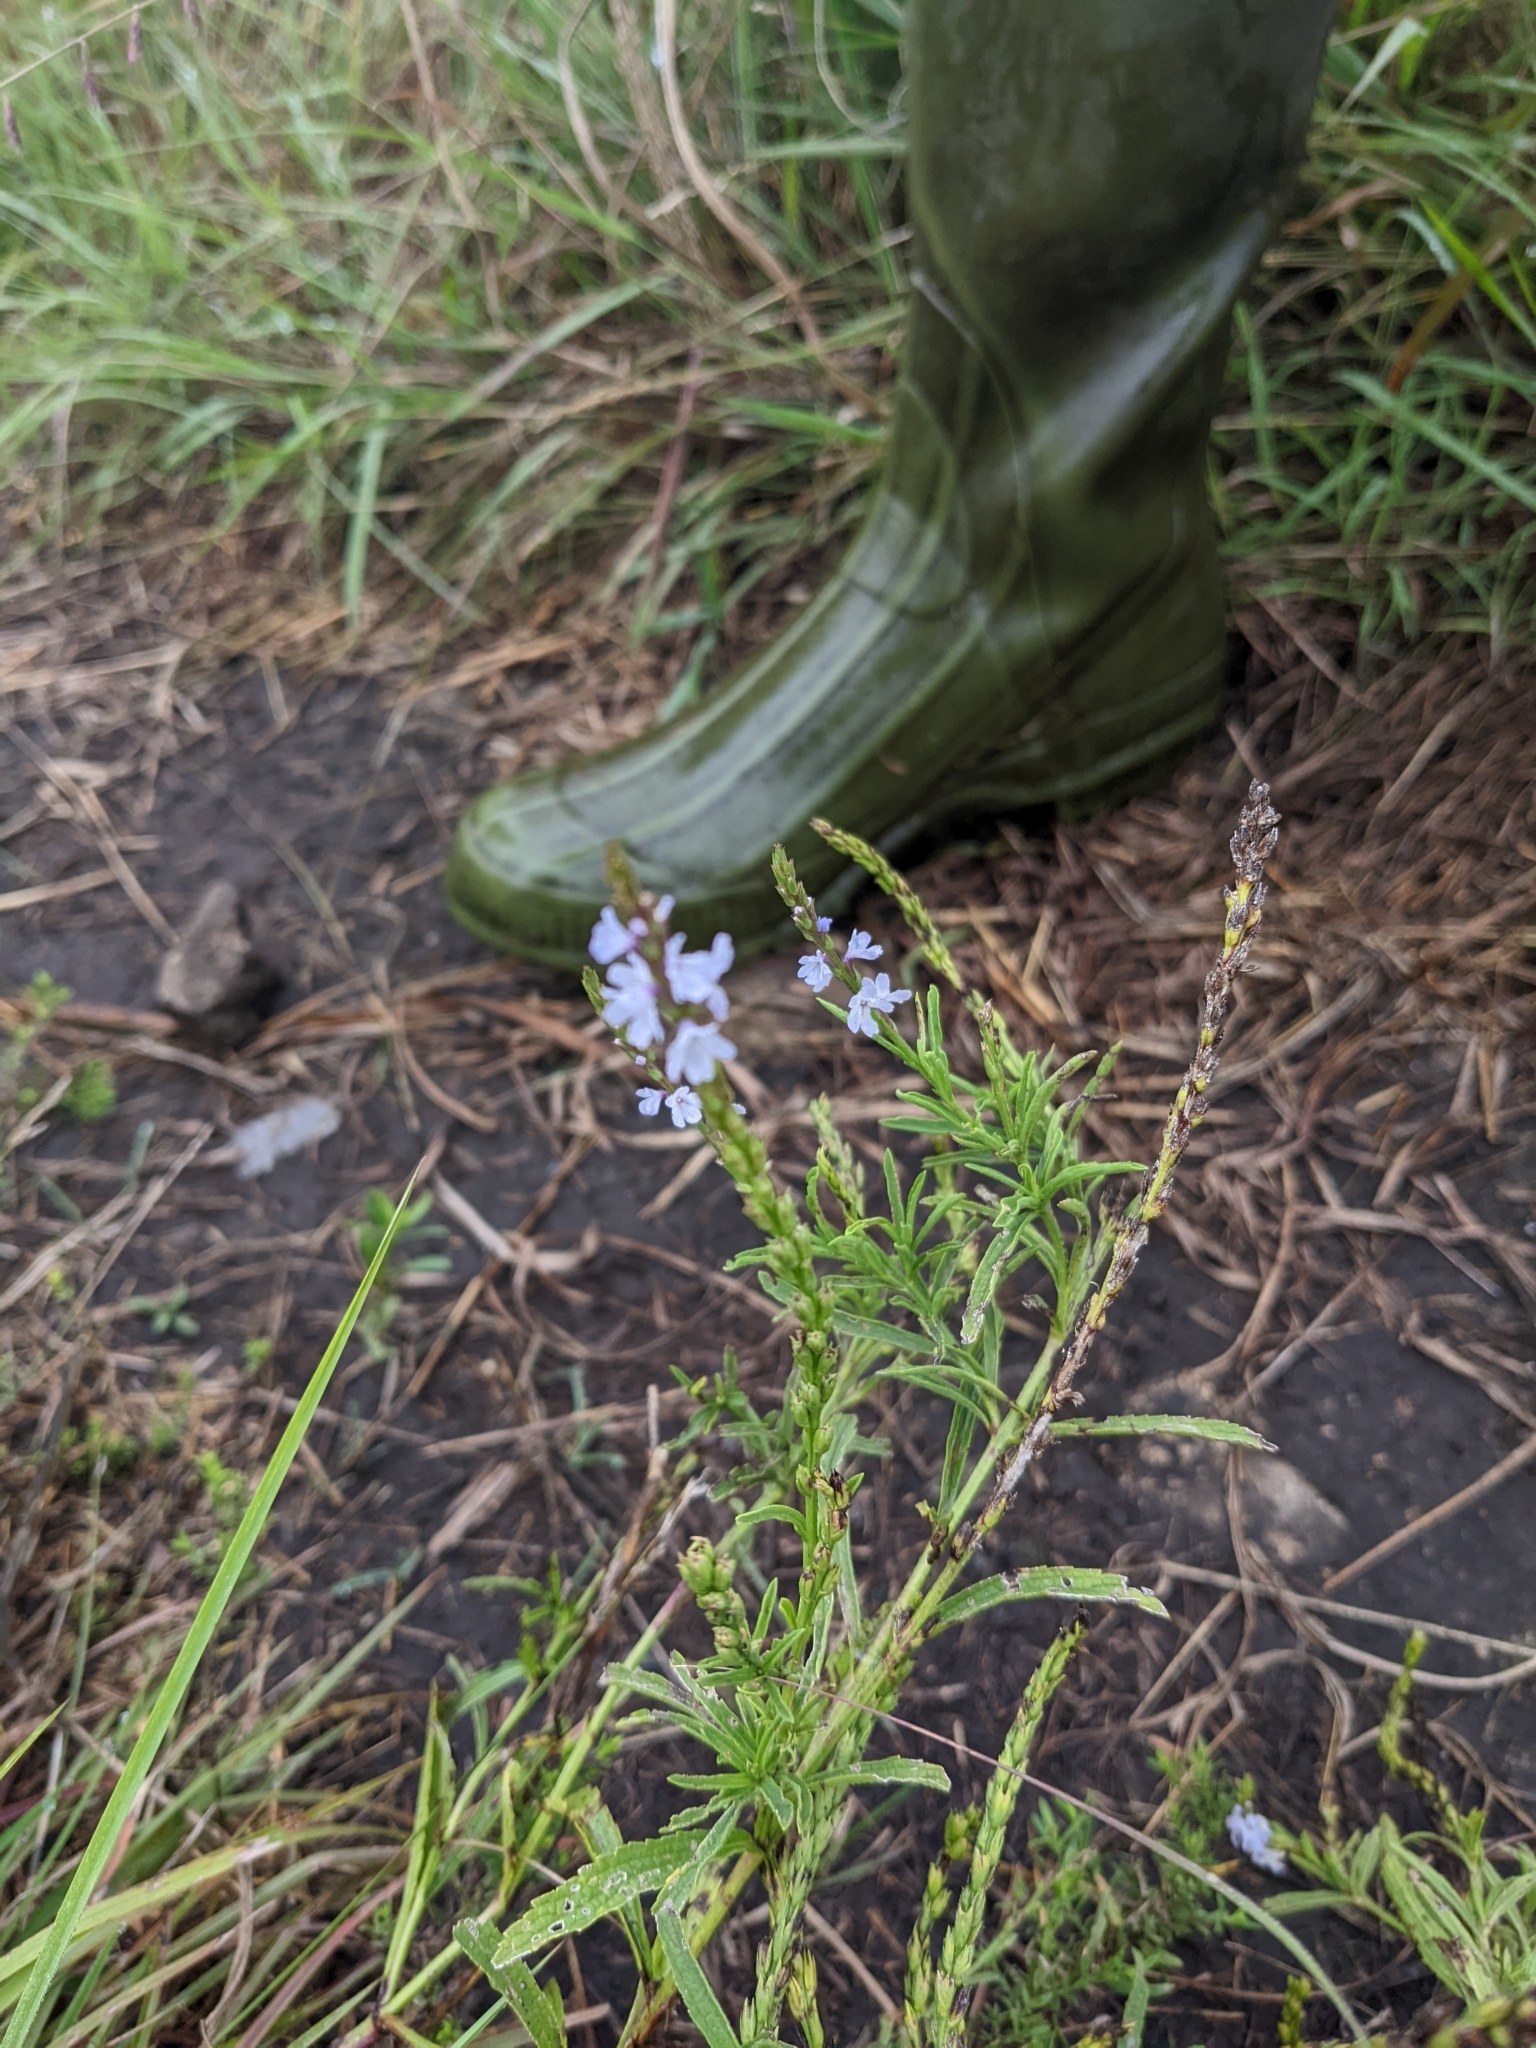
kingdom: Plantae
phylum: Tracheophyta
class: Magnoliopsida
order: Lamiales
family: Verbenaceae
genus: Verbena
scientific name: Verbena simplex
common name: Narrow-leaf vervain
